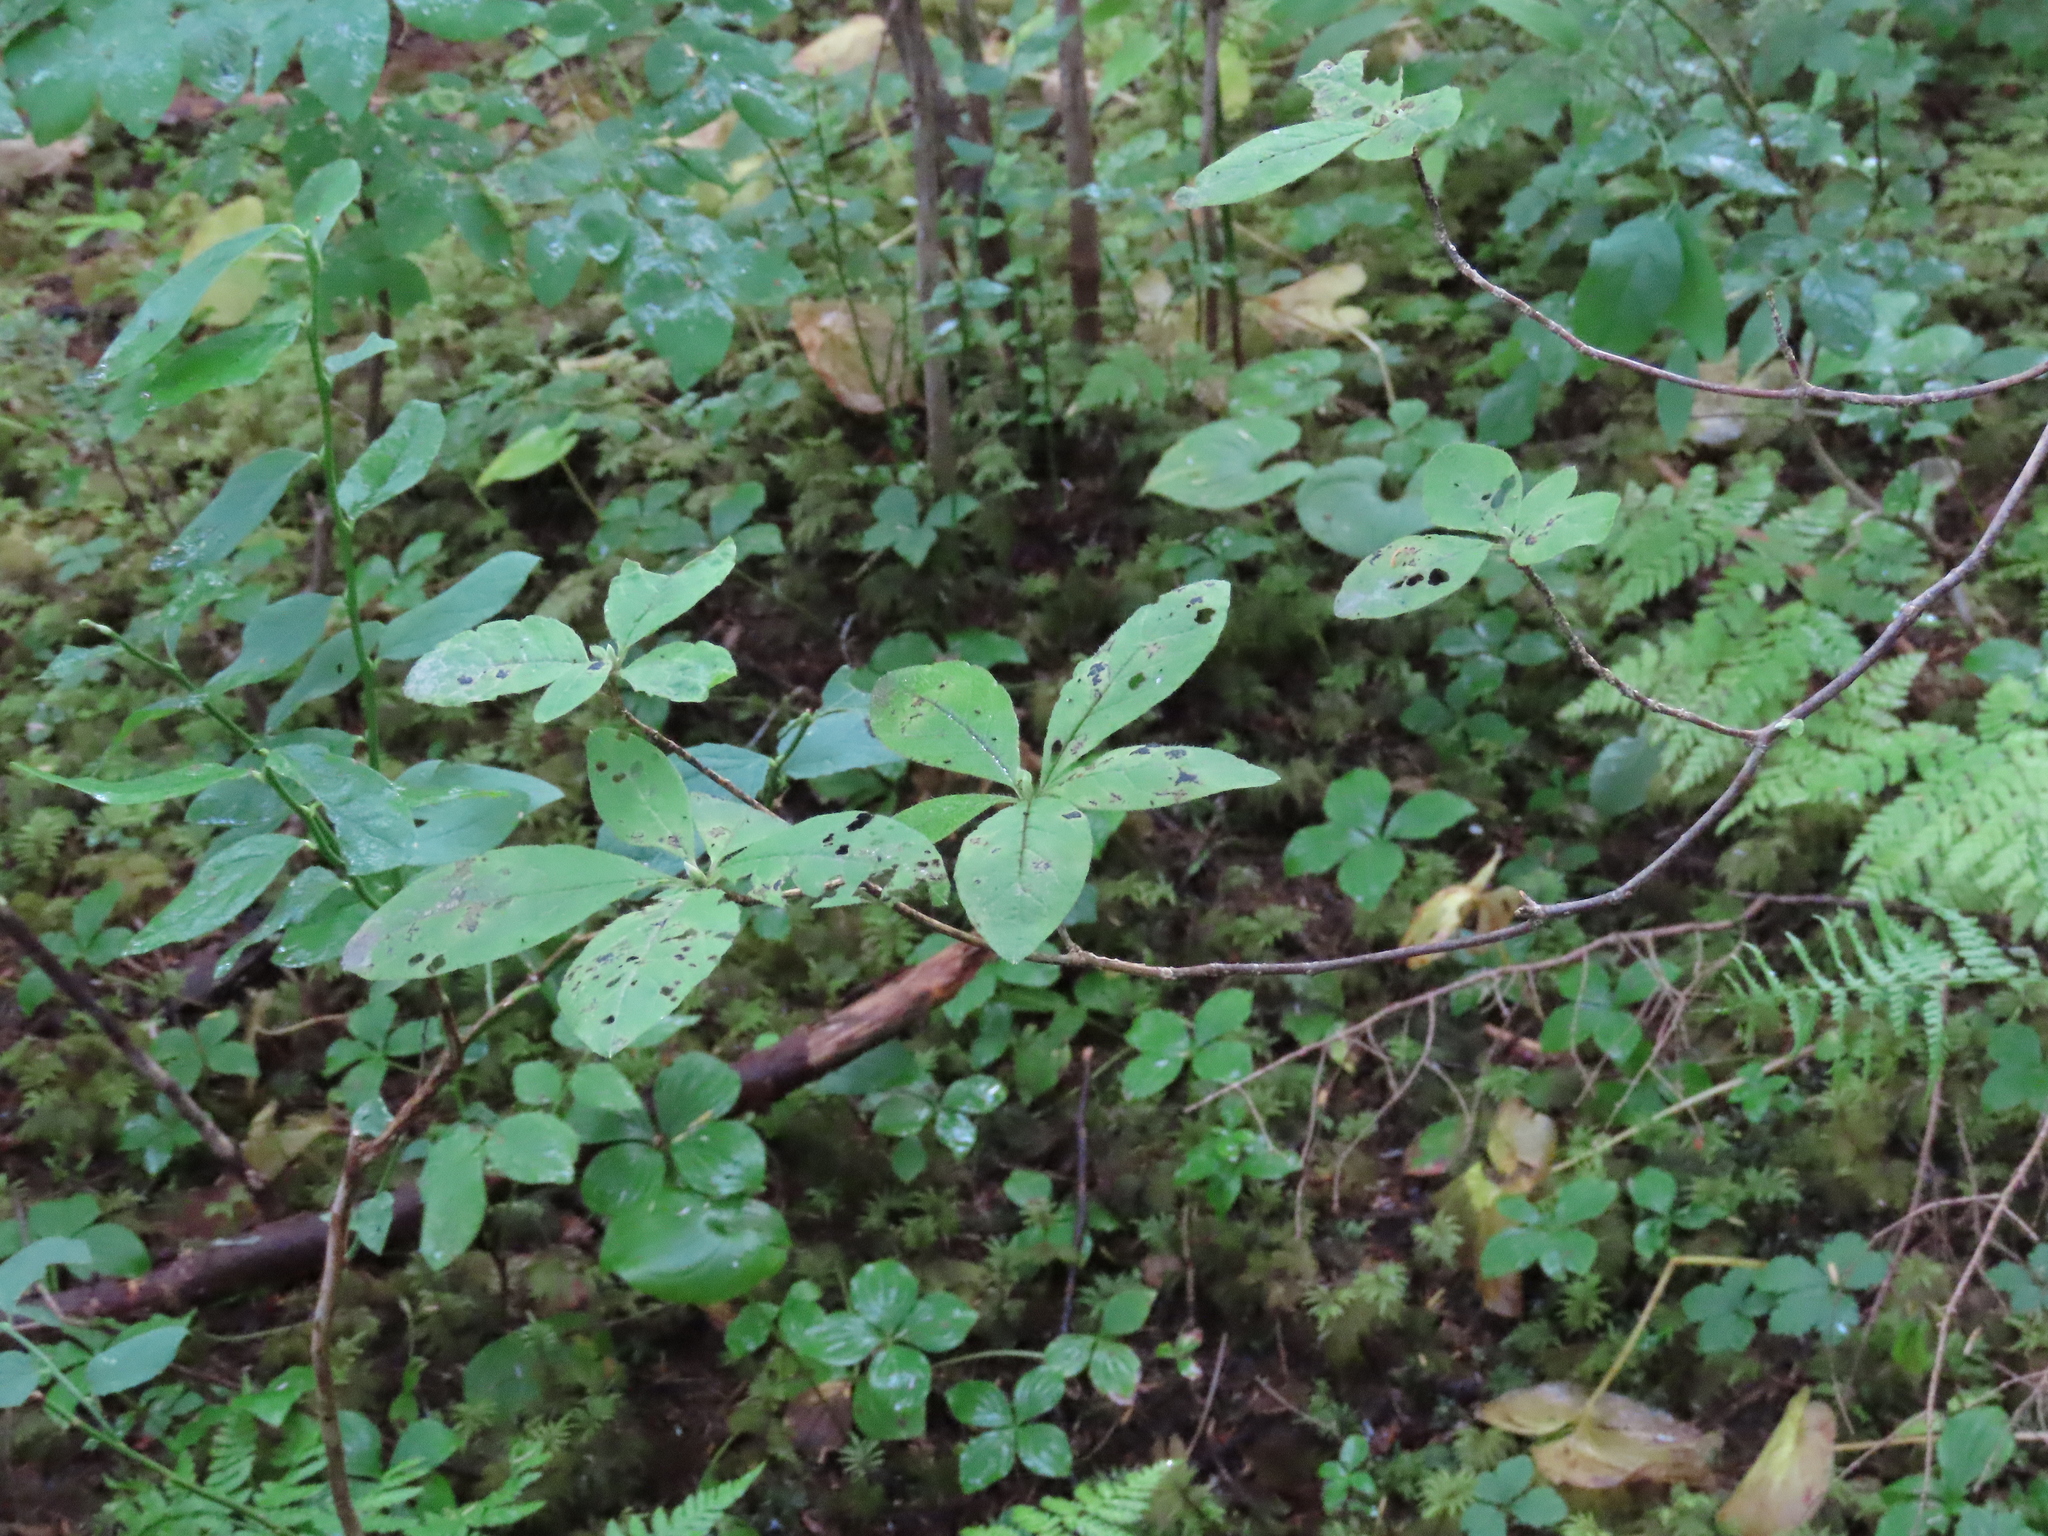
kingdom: Plantae
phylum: Tracheophyta
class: Magnoliopsida
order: Ericales
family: Ericaceae
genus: Rhododendron
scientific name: Rhododendron menziesii
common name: Pacific menziesia
